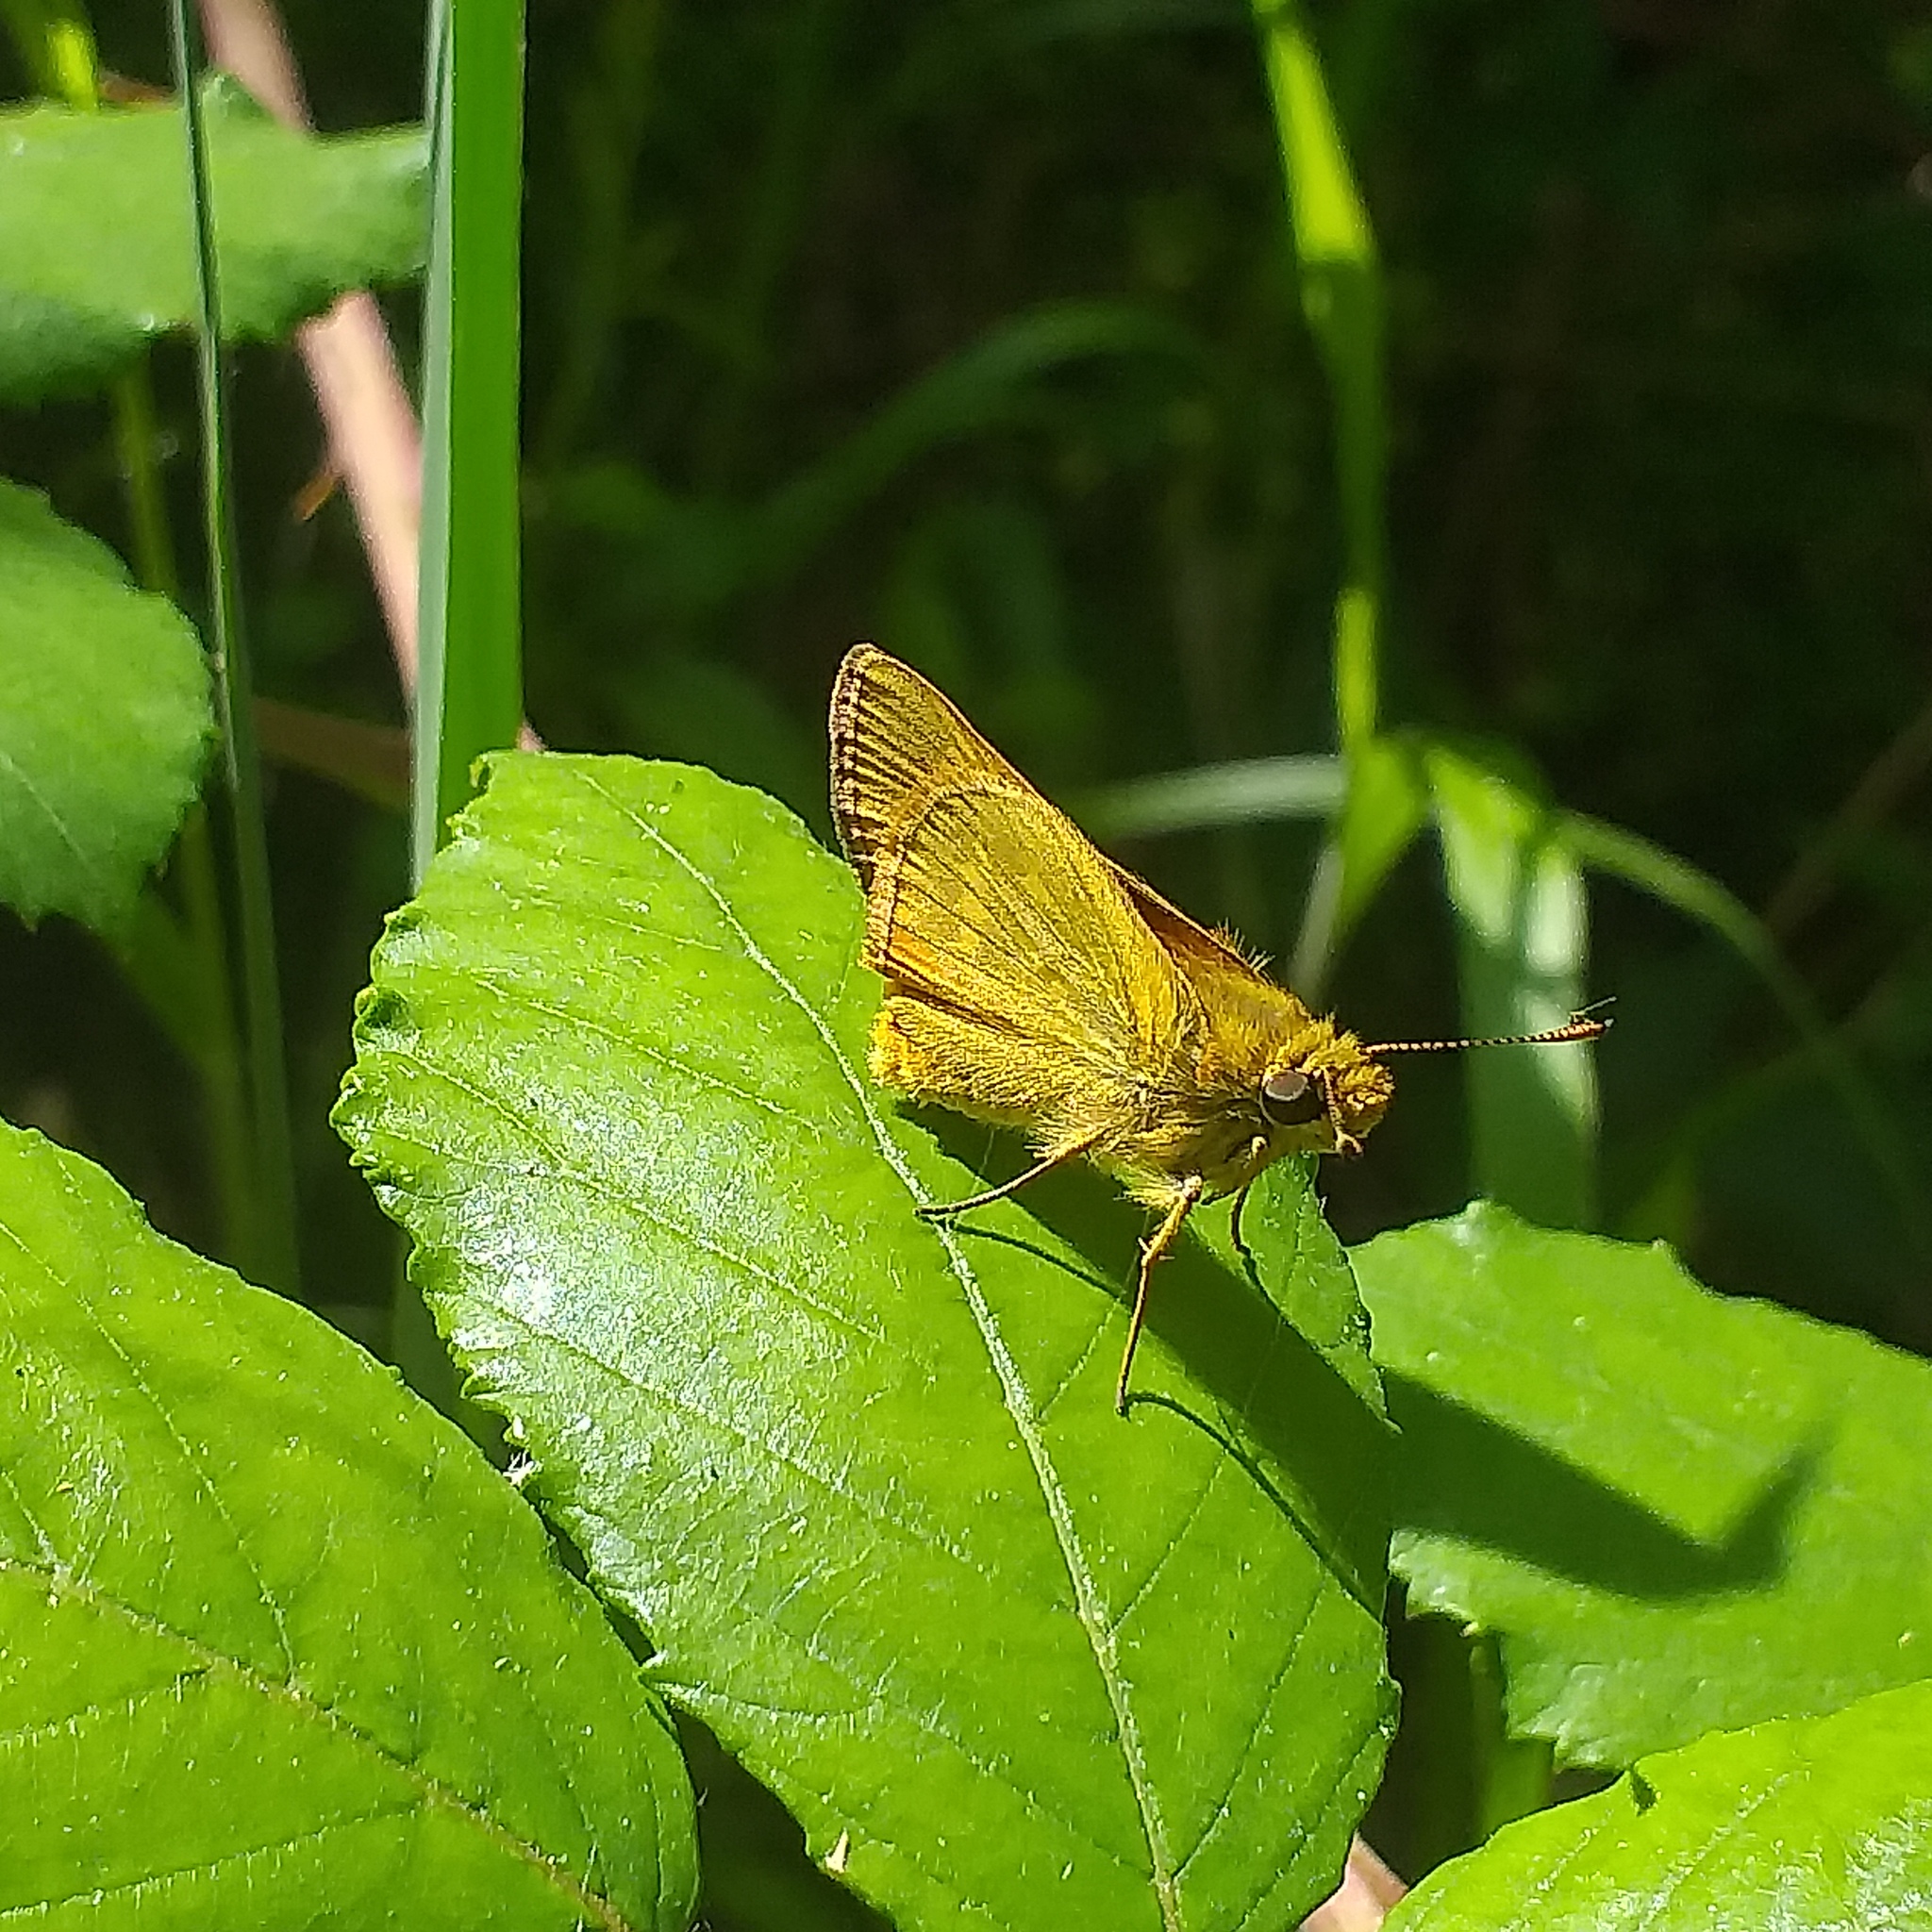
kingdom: Animalia
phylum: Arthropoda
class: Insecta
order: Lepidoptera
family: Hesperiidae
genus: Ochlodes
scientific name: Ochlodes venata
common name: Large skipper
